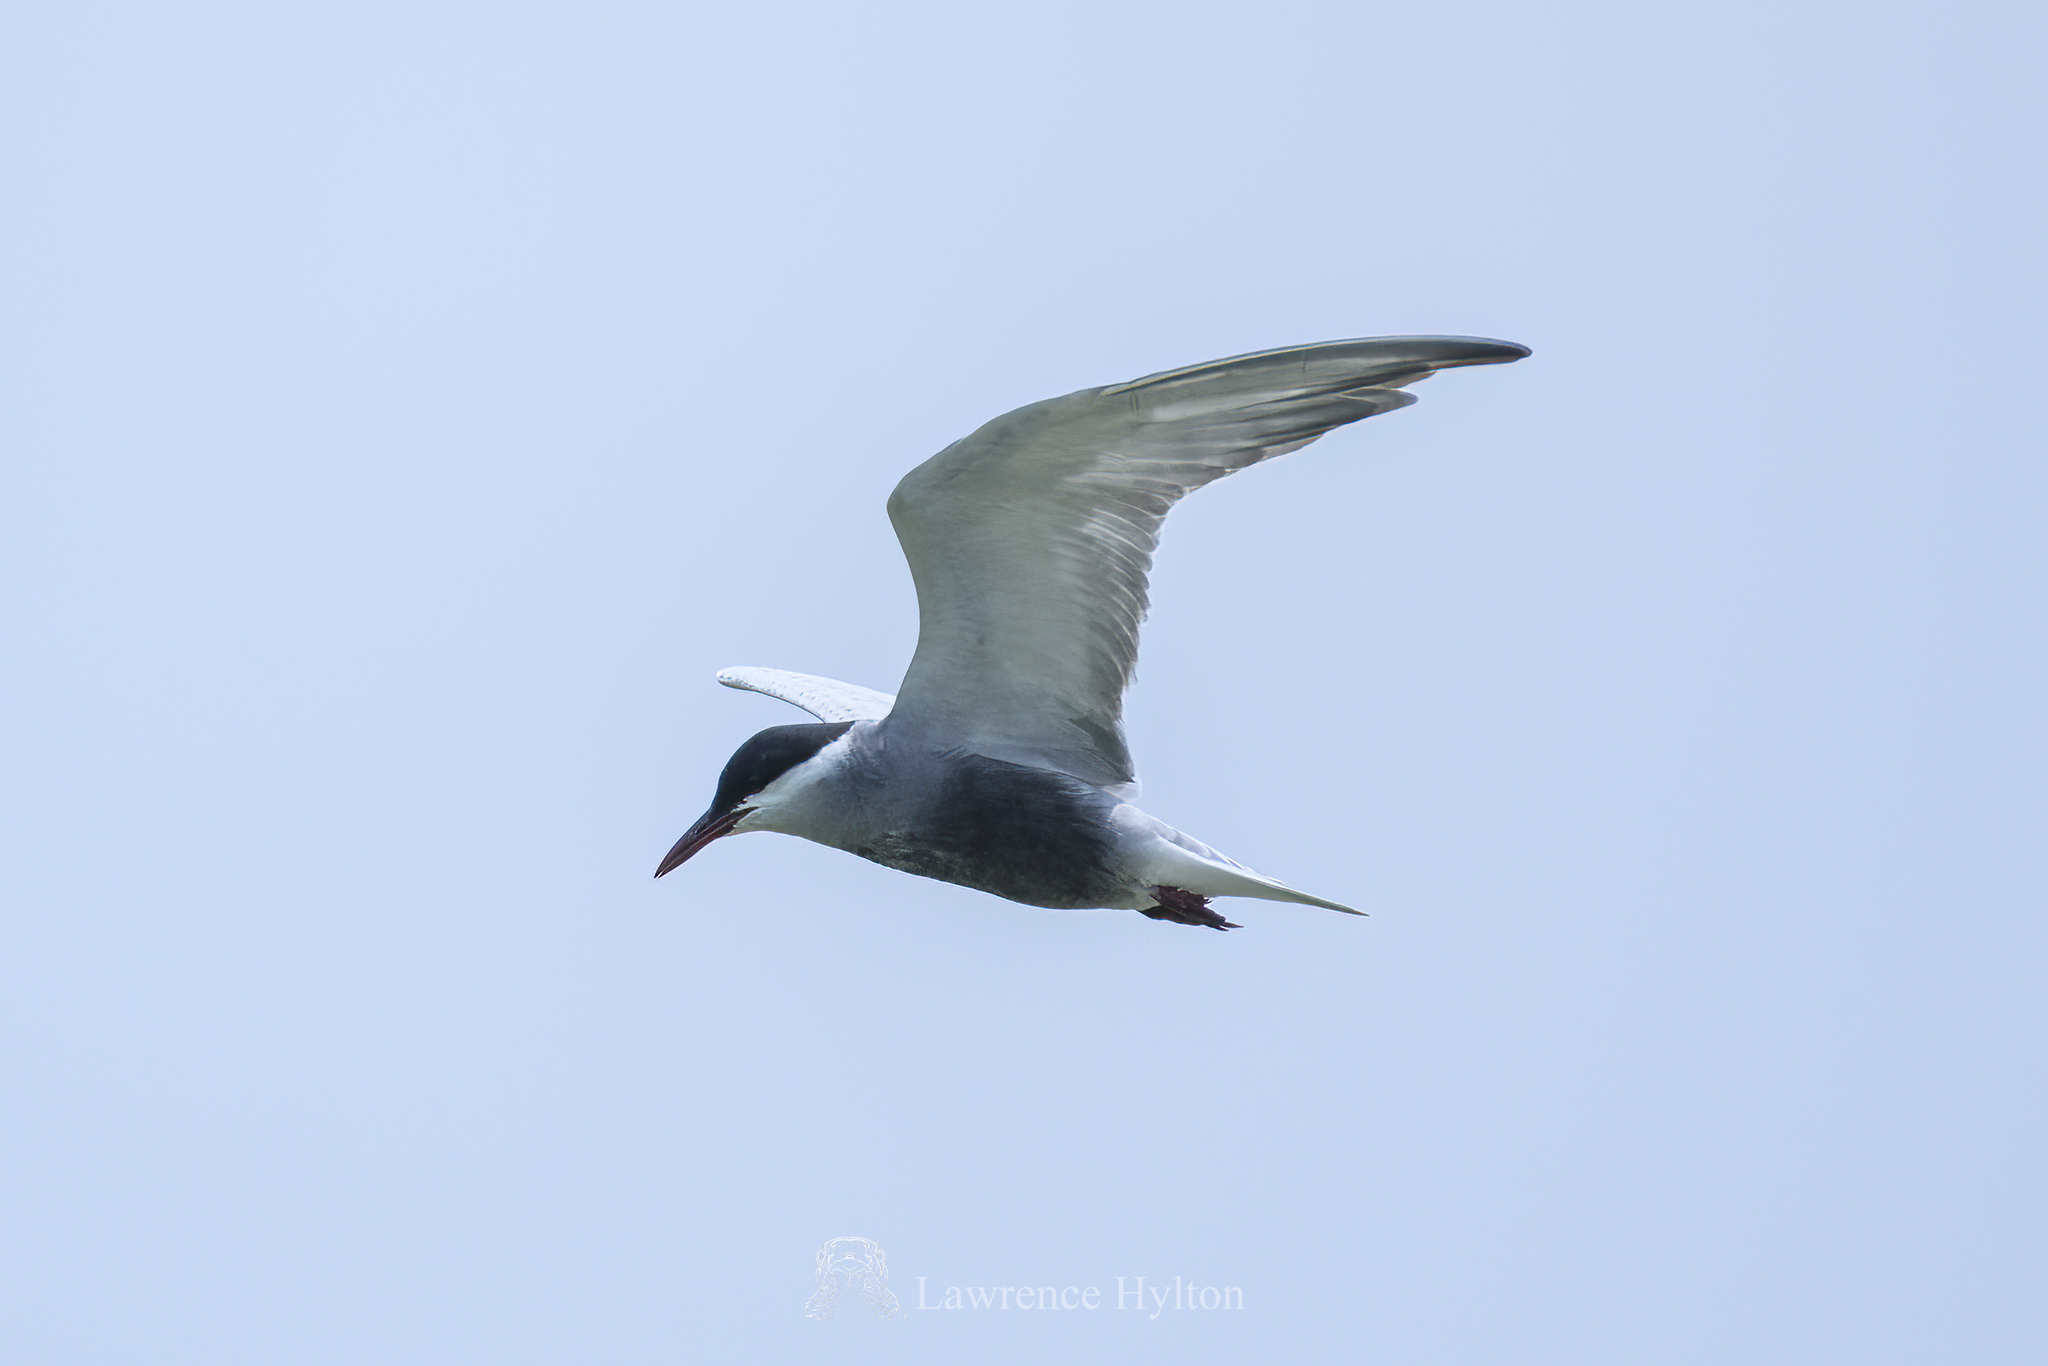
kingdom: Animalia
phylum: Chordata
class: Aves
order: Charadriiformes
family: Laridae
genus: Chlidonias
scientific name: Chlidonias hybrida
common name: Whiskered tern
